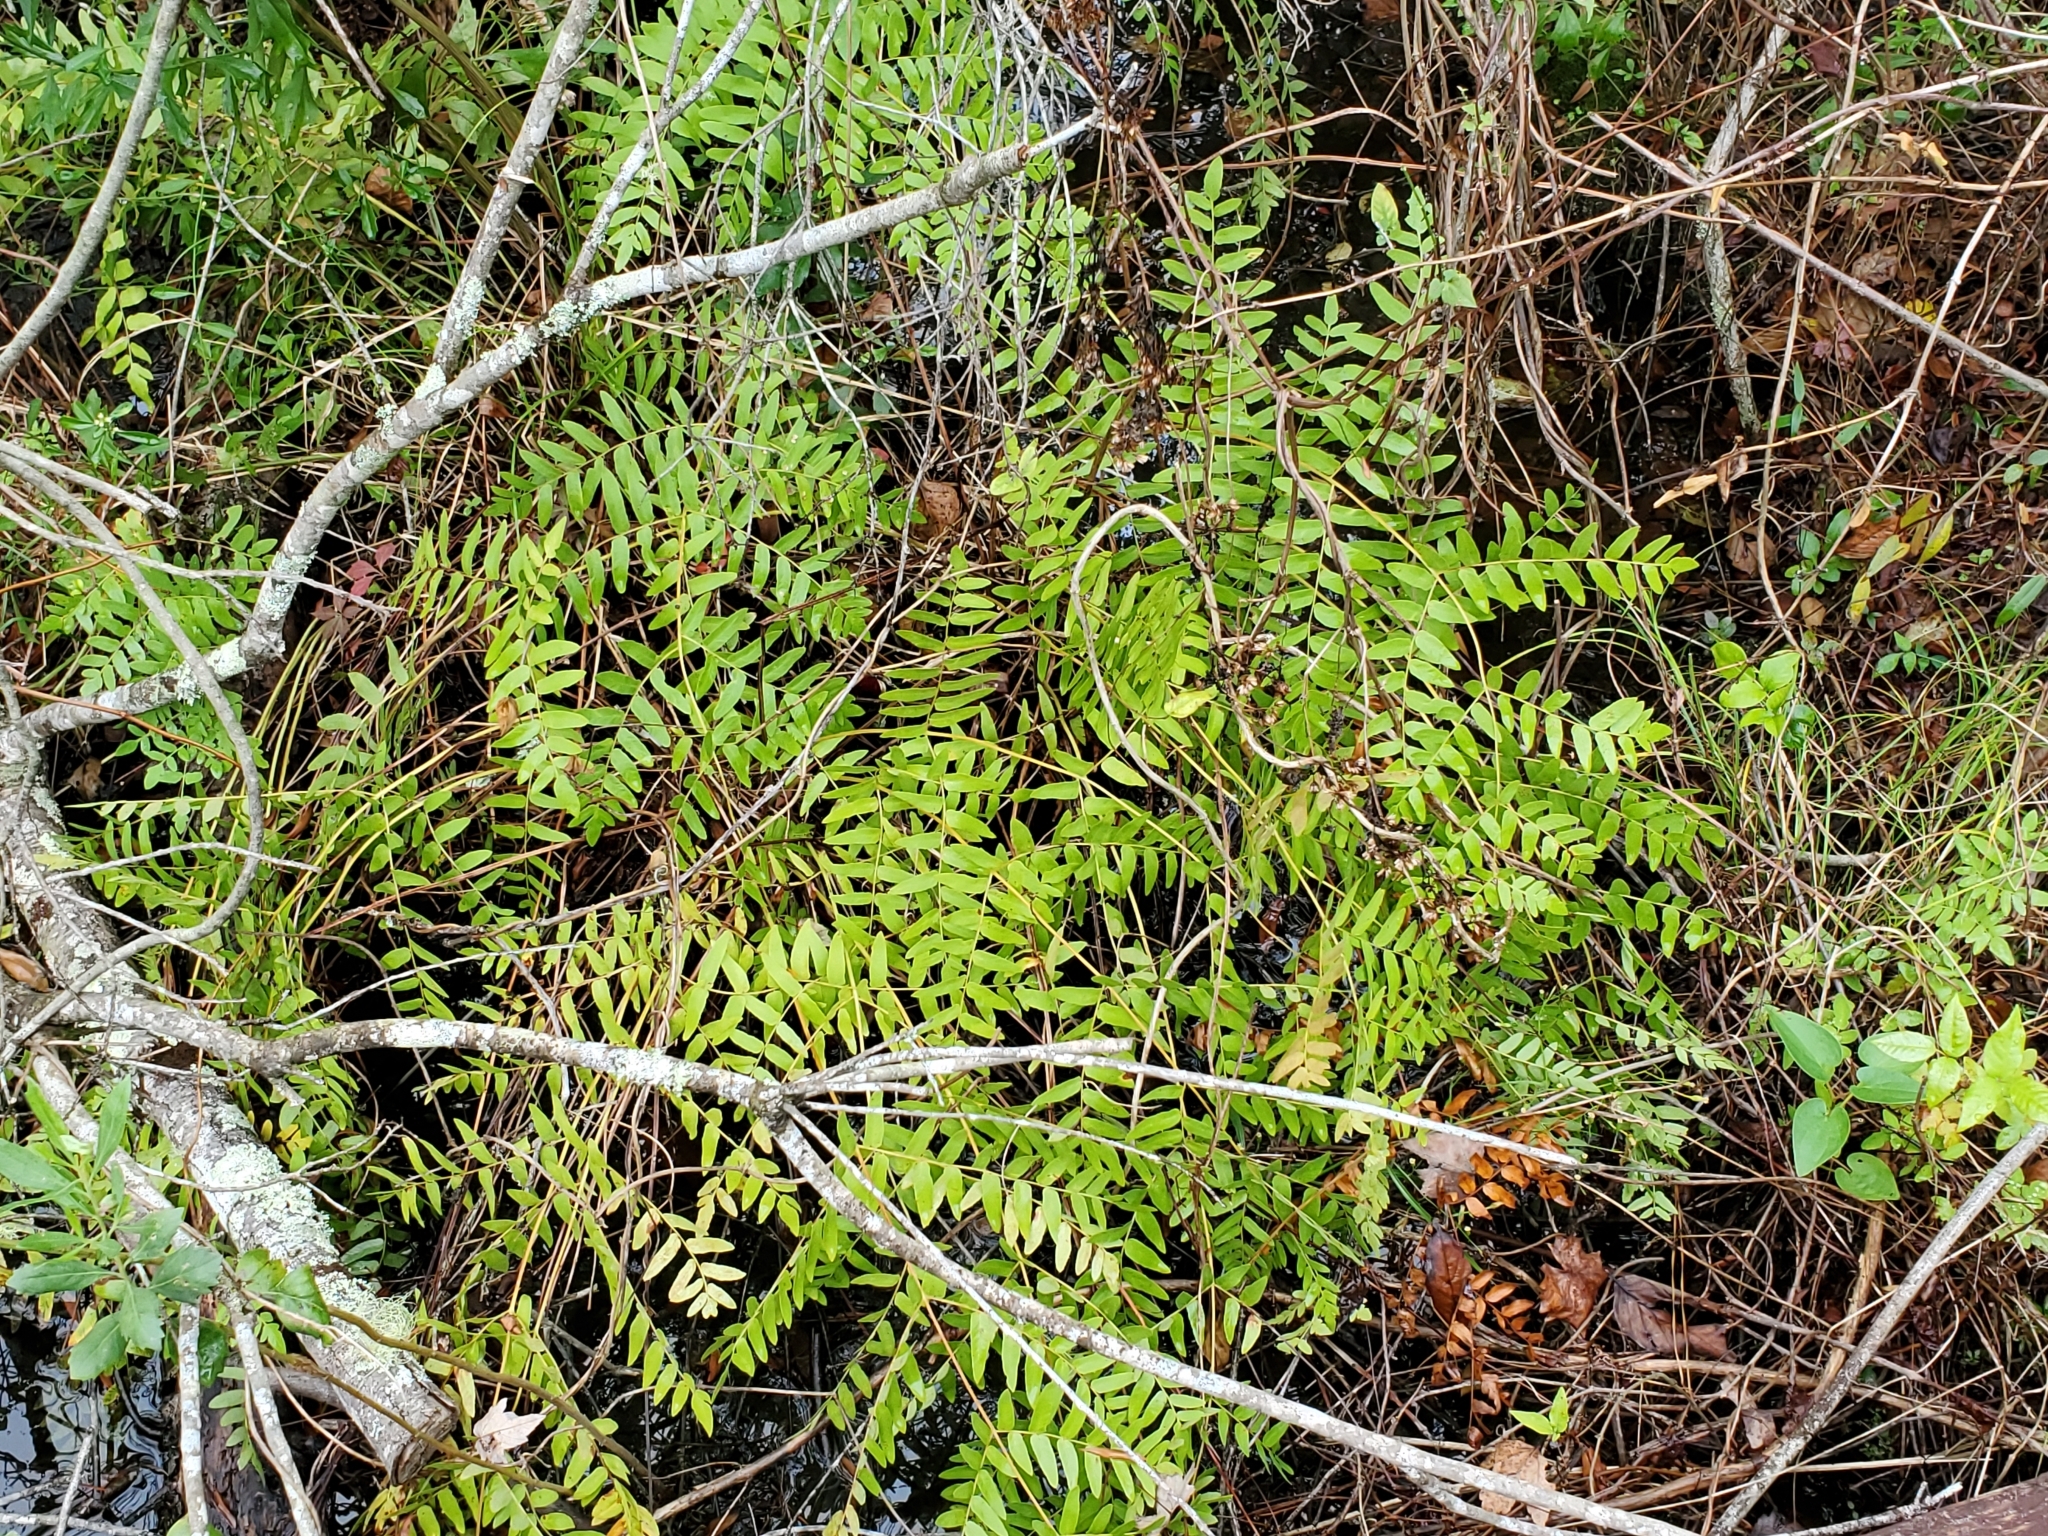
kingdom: Plantae
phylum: Tracheophyta
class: Polypodiopsida
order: Osmundales
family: Osmundaceae
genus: Osmunda
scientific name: Osmunda spectabilis
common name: American royal fern
